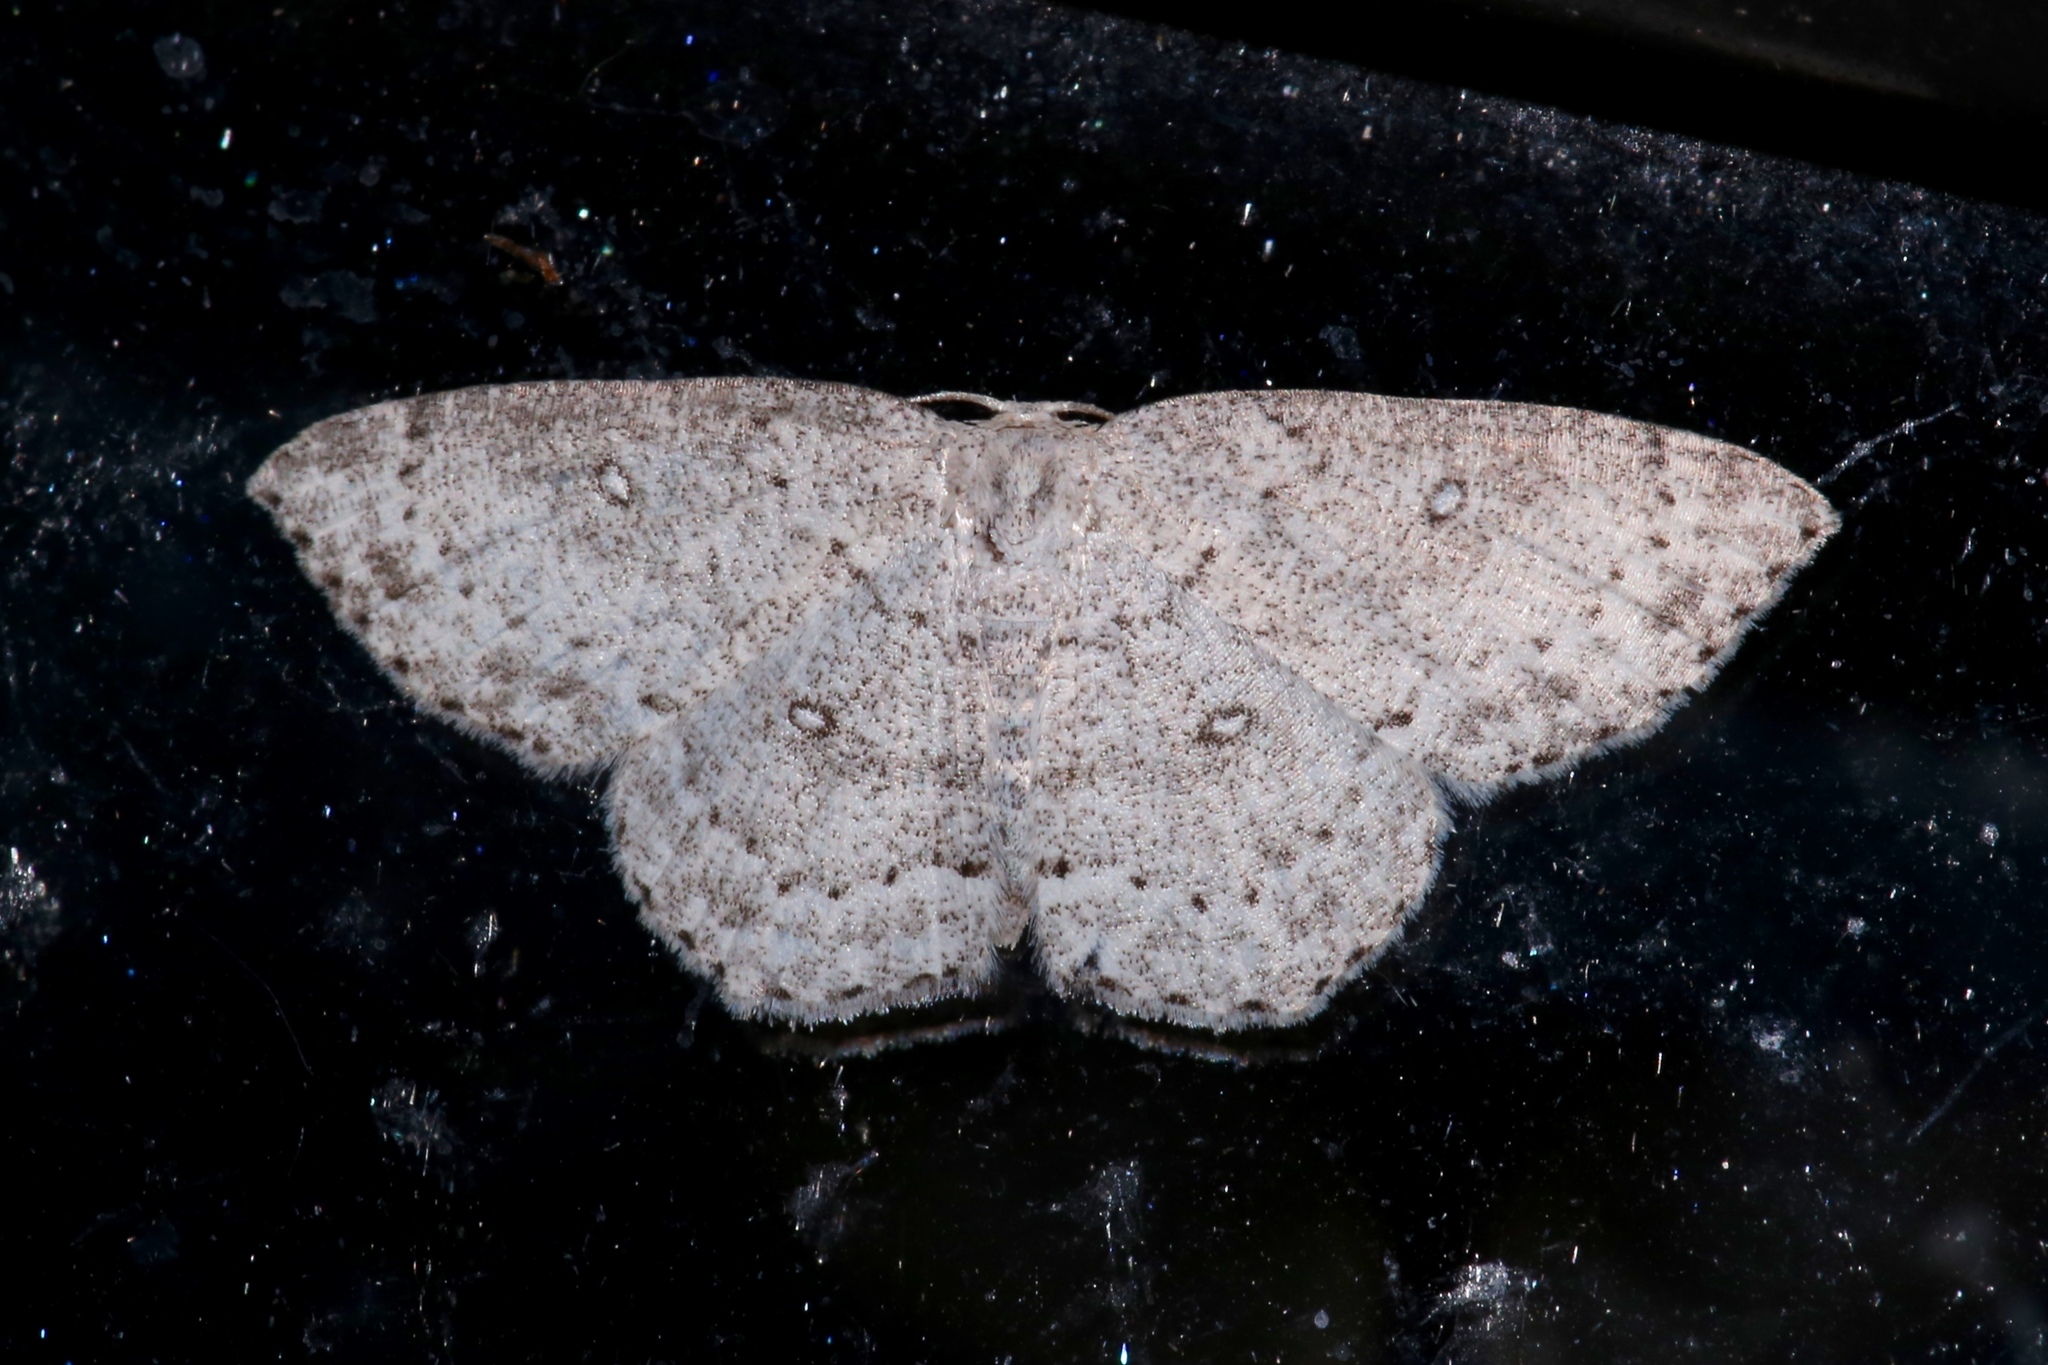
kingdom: Animalia
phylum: Arthropoda
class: Insecta
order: Lepidoptera
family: Geometridae
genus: Cyclophora
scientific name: Cyclophora pendulinaria
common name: Sweet fern geometer
